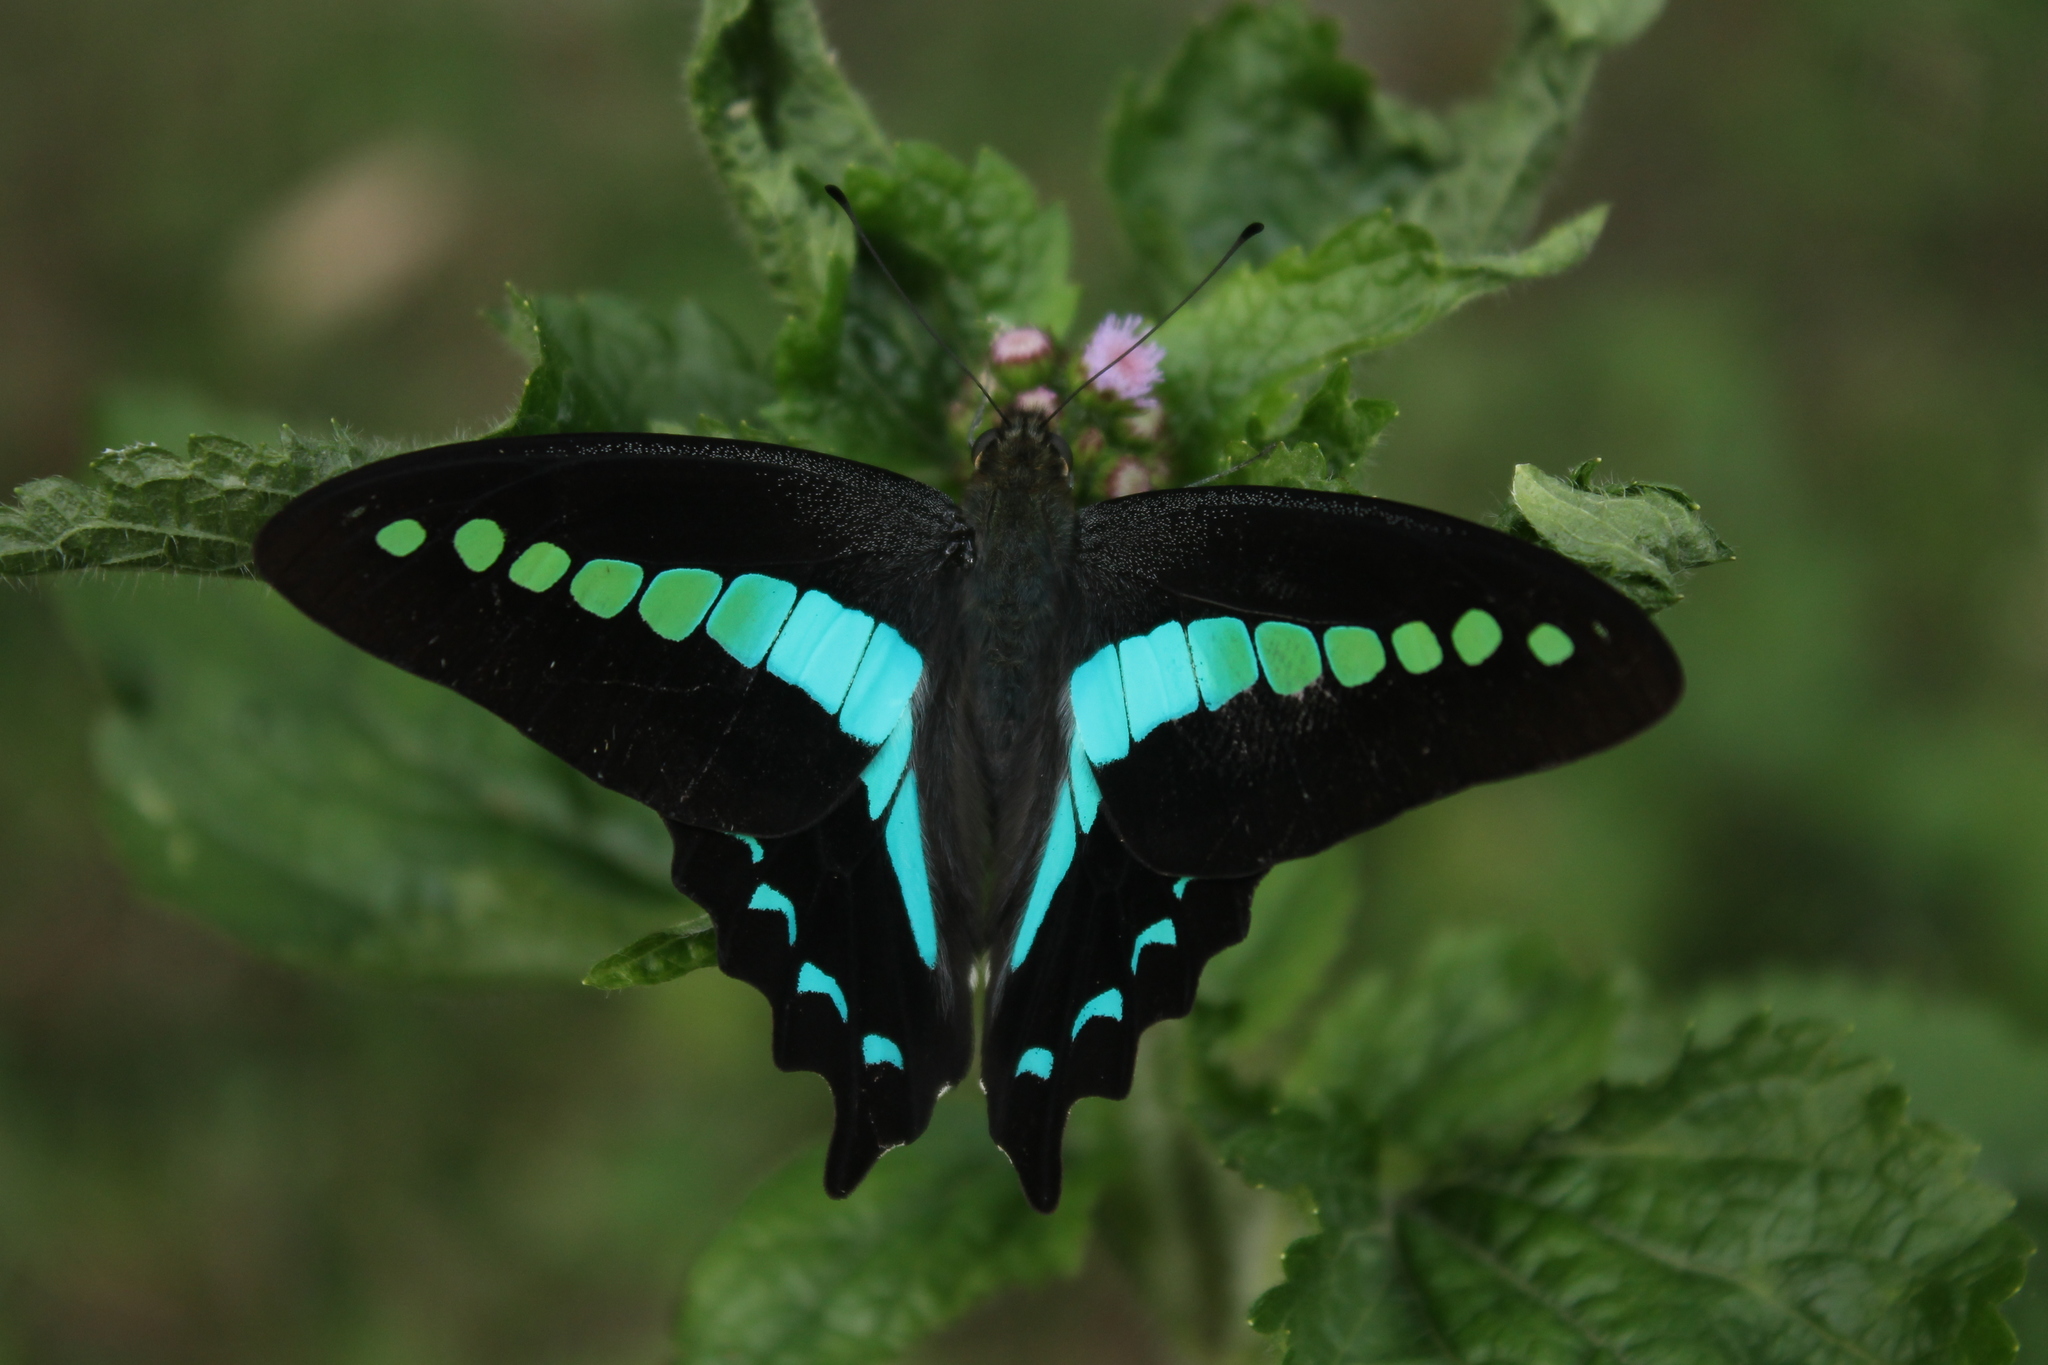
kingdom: Animalia
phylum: Arthropoda
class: Insecta
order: Lepidoptera
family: Papilionidae
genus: Graphium
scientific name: Graphium
